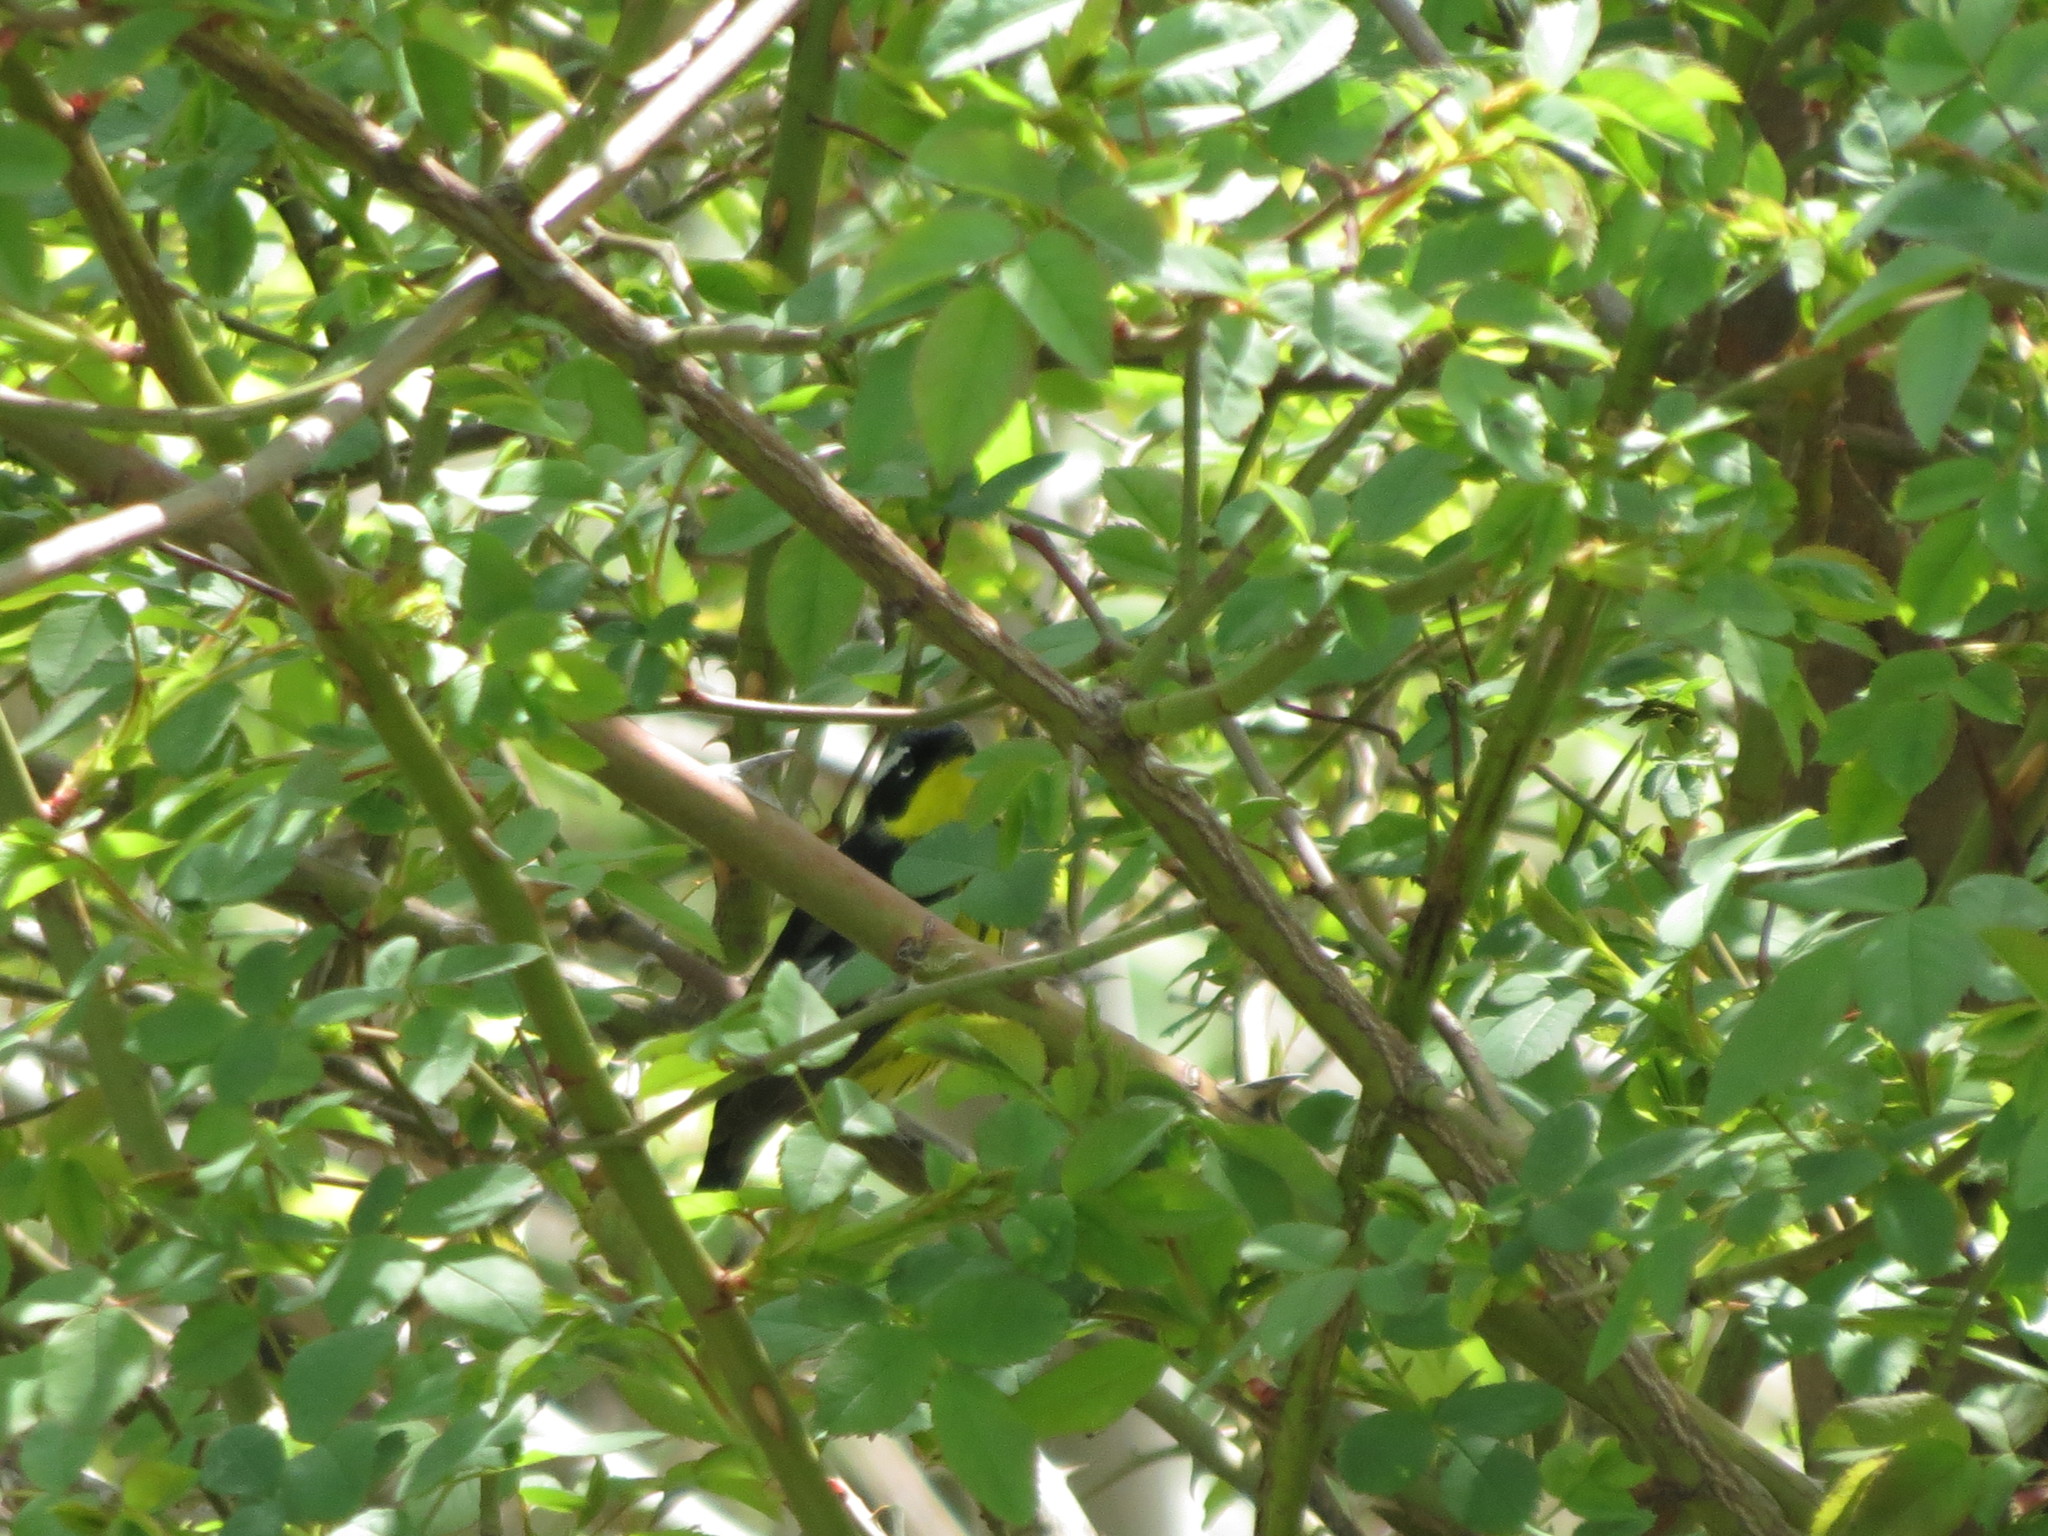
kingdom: Animalia
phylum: Chordata
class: Aves
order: Passeriformes
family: Parulidae
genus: Setophaga
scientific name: Setophaga magnolia
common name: Magnolia warbler
